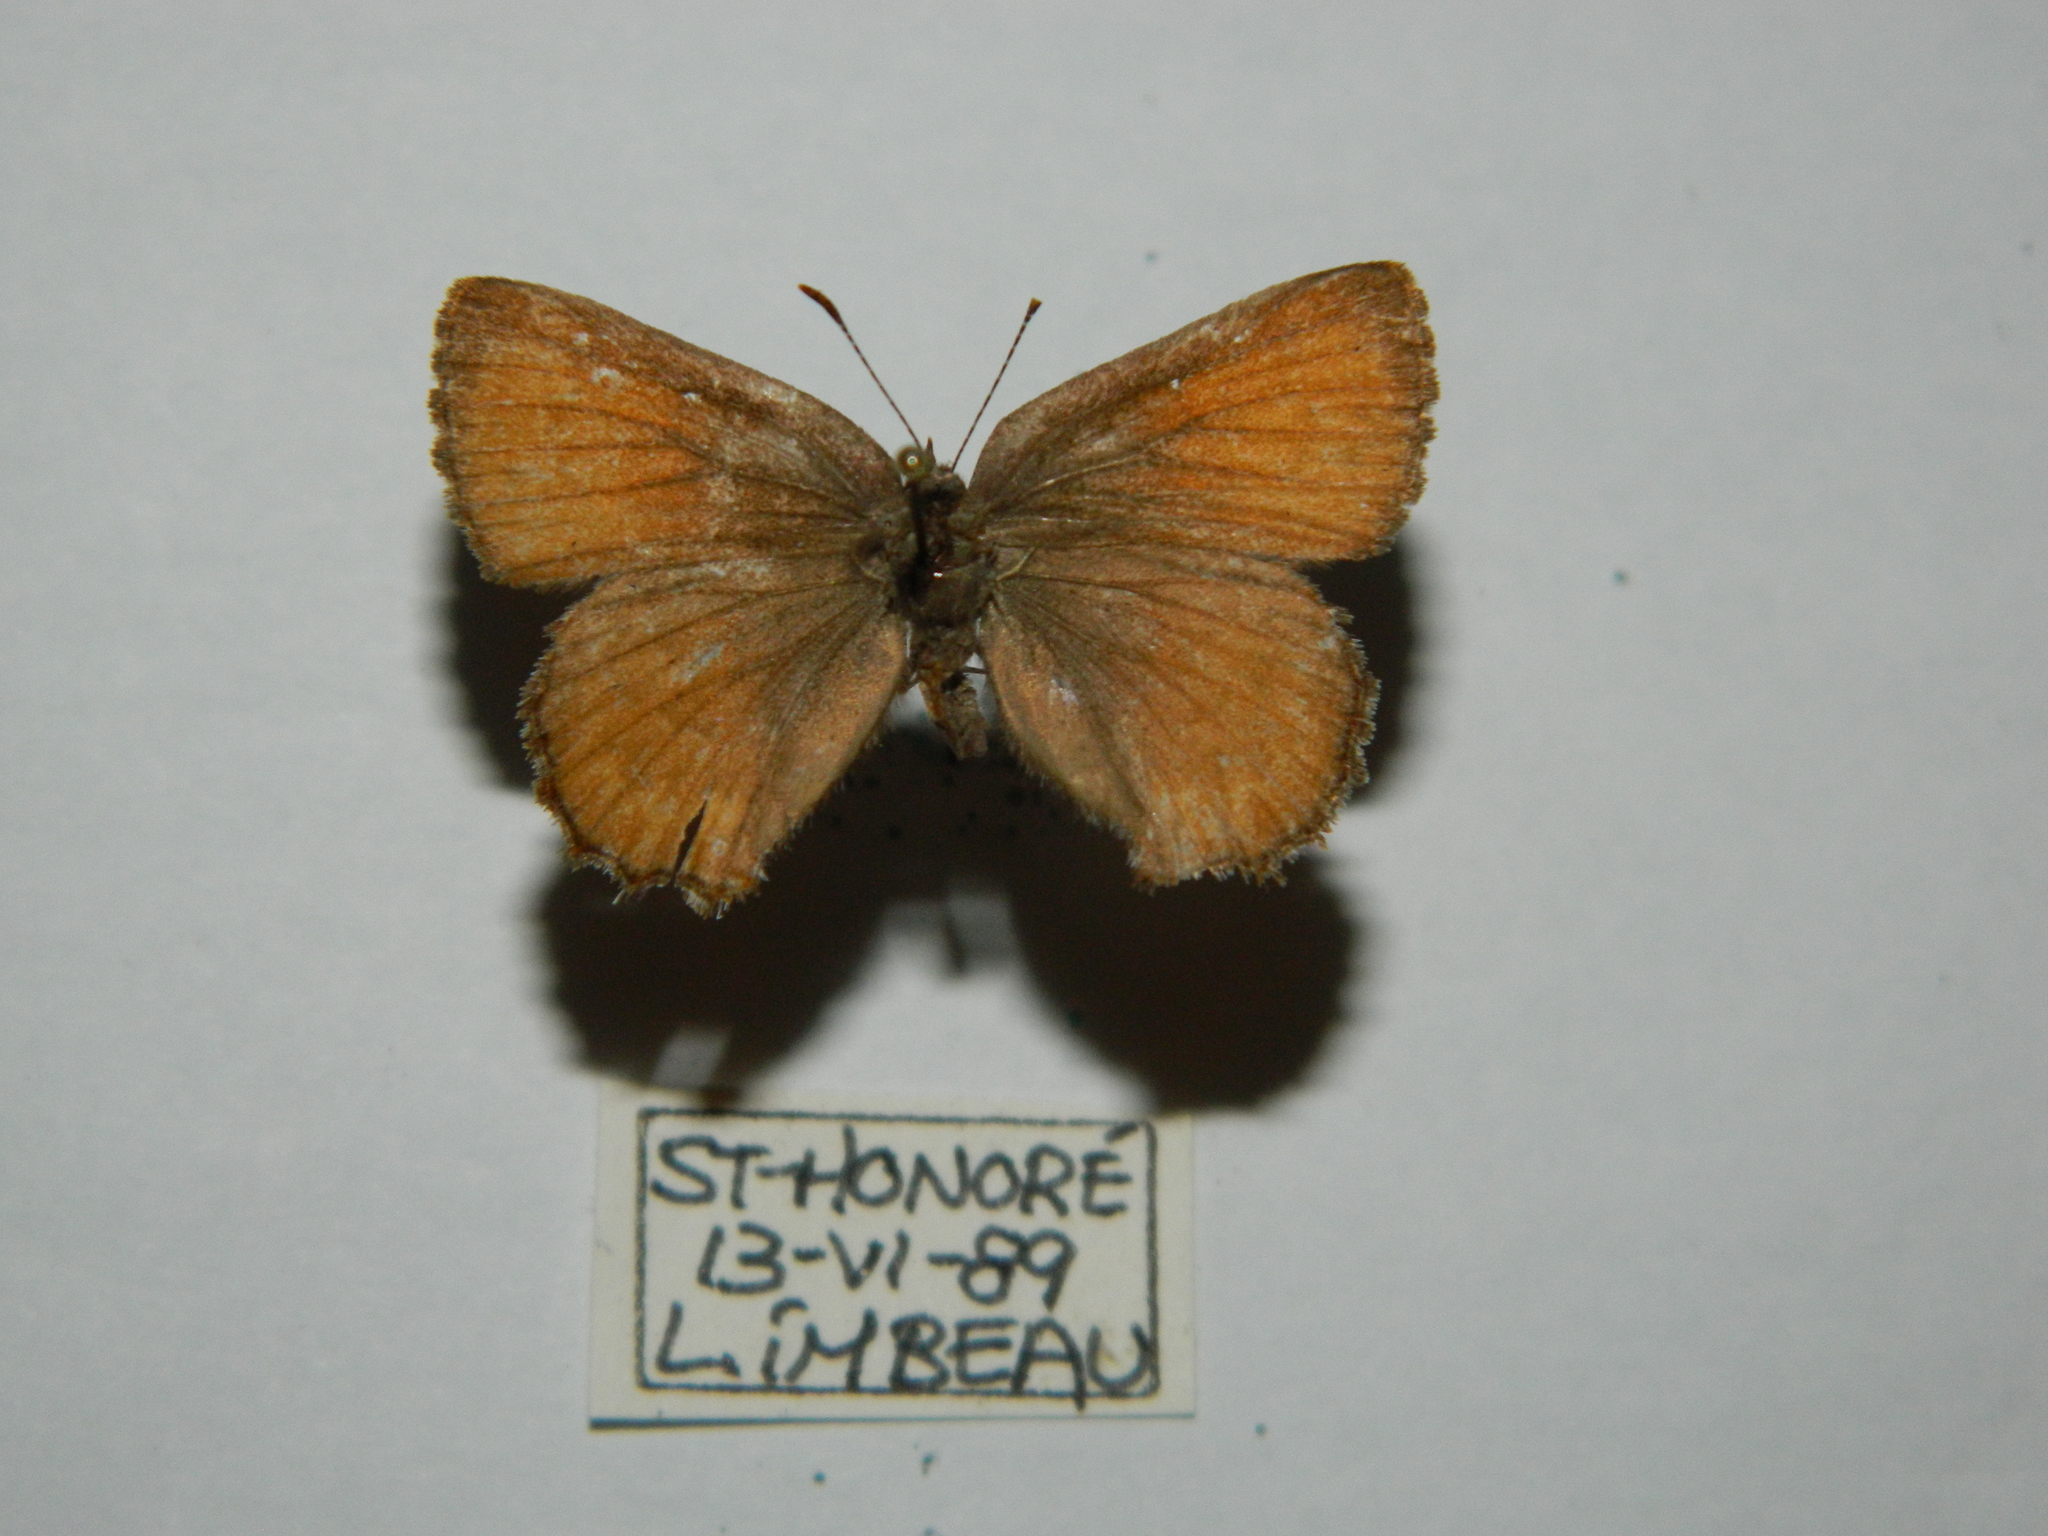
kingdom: Animalia
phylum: Arthropoda
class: Insecta
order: Lepidoptera
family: Lycaenidae
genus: Incisalia
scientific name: Incisalia eryphon
